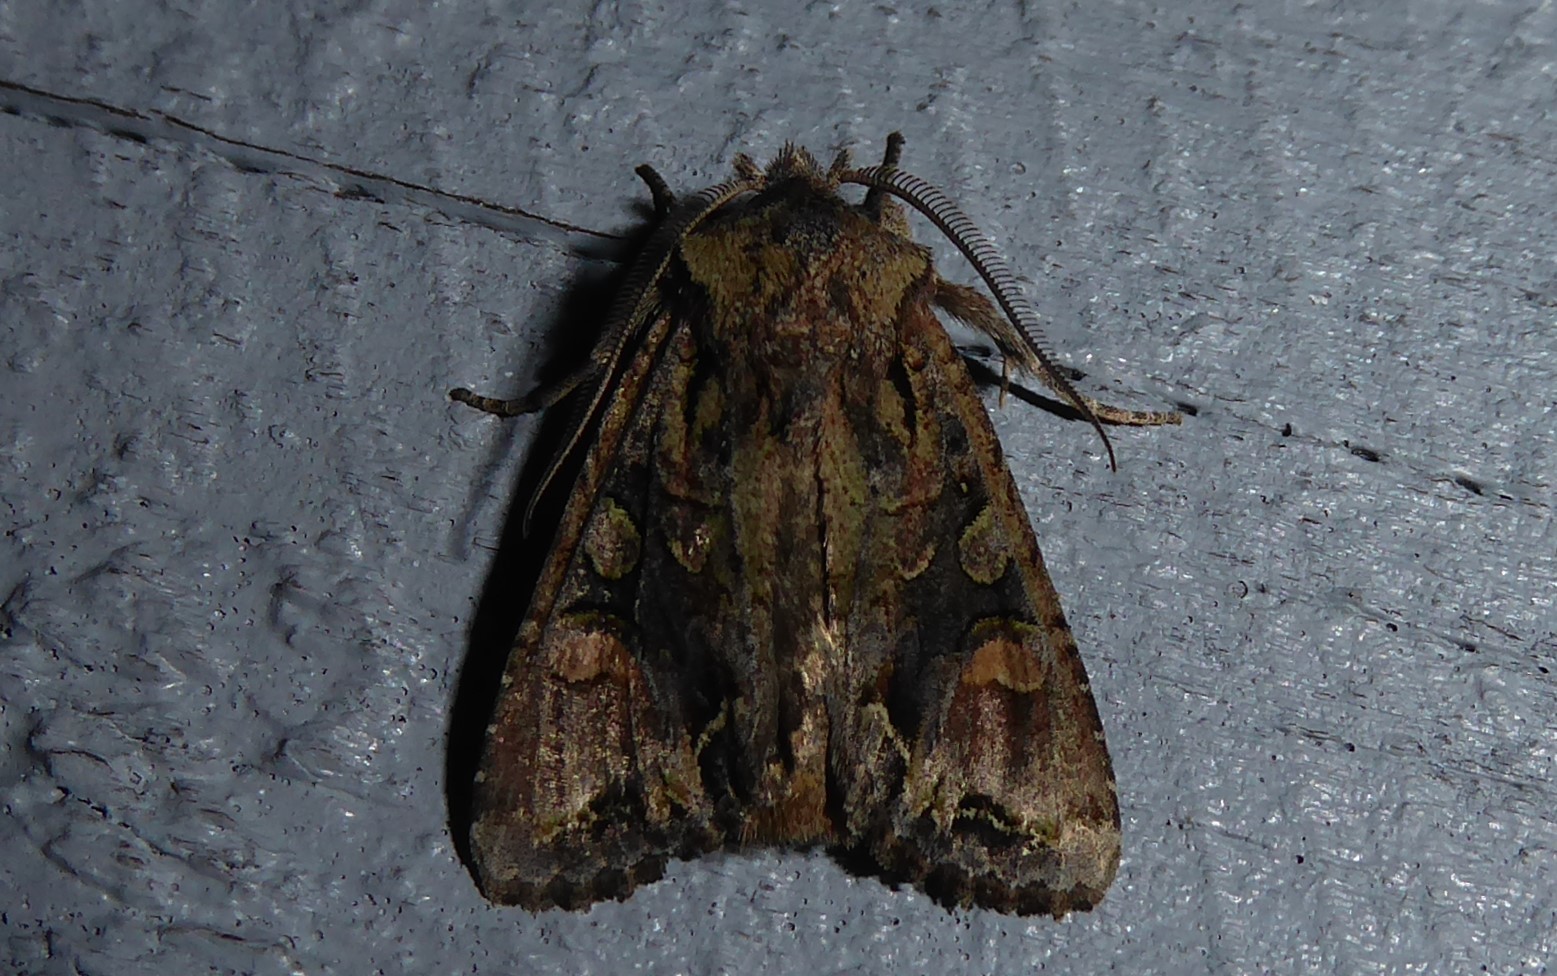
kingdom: Animalia
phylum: Arthropoda
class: Insecta
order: Lepidoptera
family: Noctuidae
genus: Ichneutica
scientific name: Ichneutica skelloni
